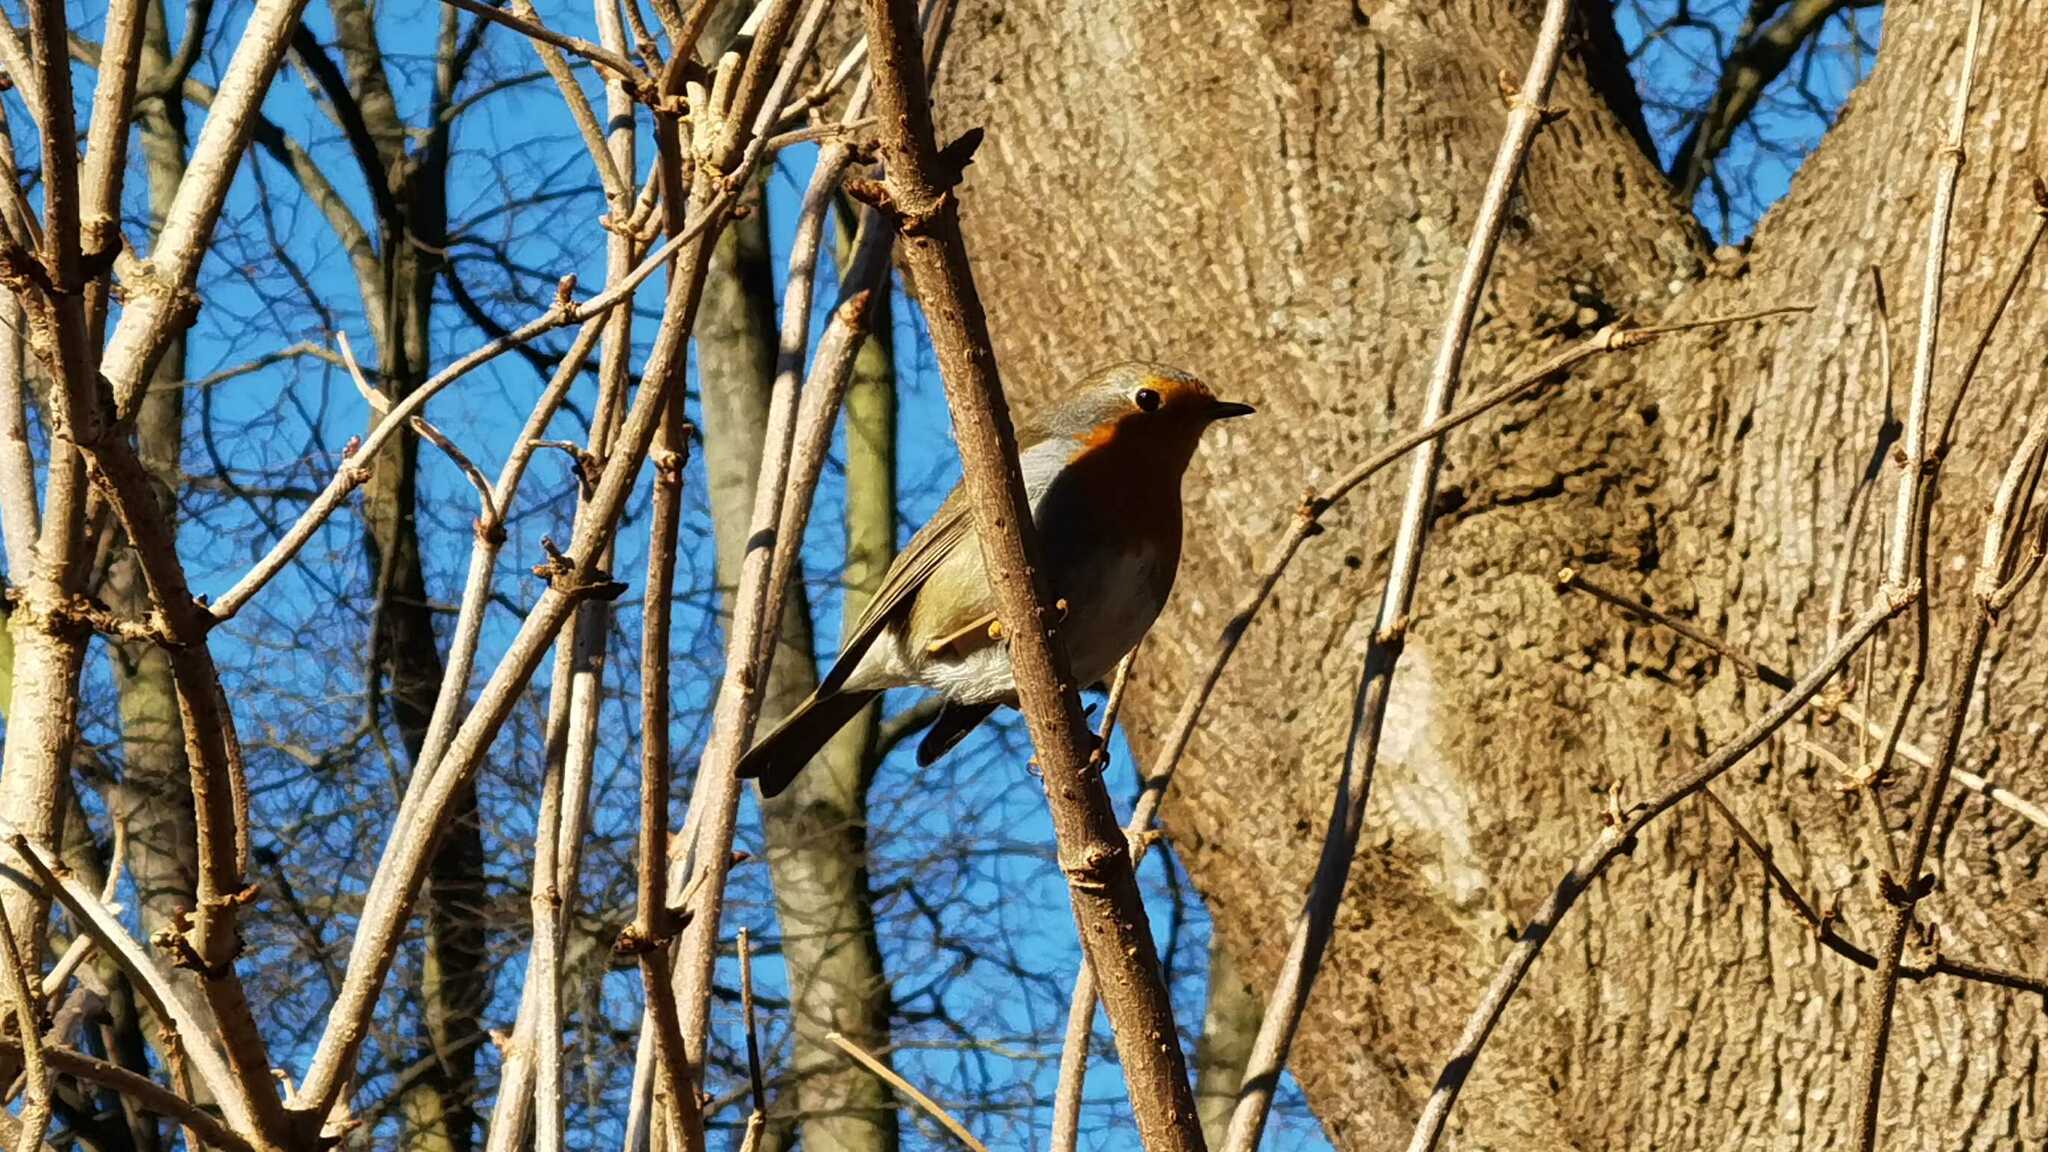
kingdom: Animalia
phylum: Chordata
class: Aves
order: Passeriformes
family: Muscicapidae
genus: Erithacus
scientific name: Erithacus rubecula
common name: European robin
